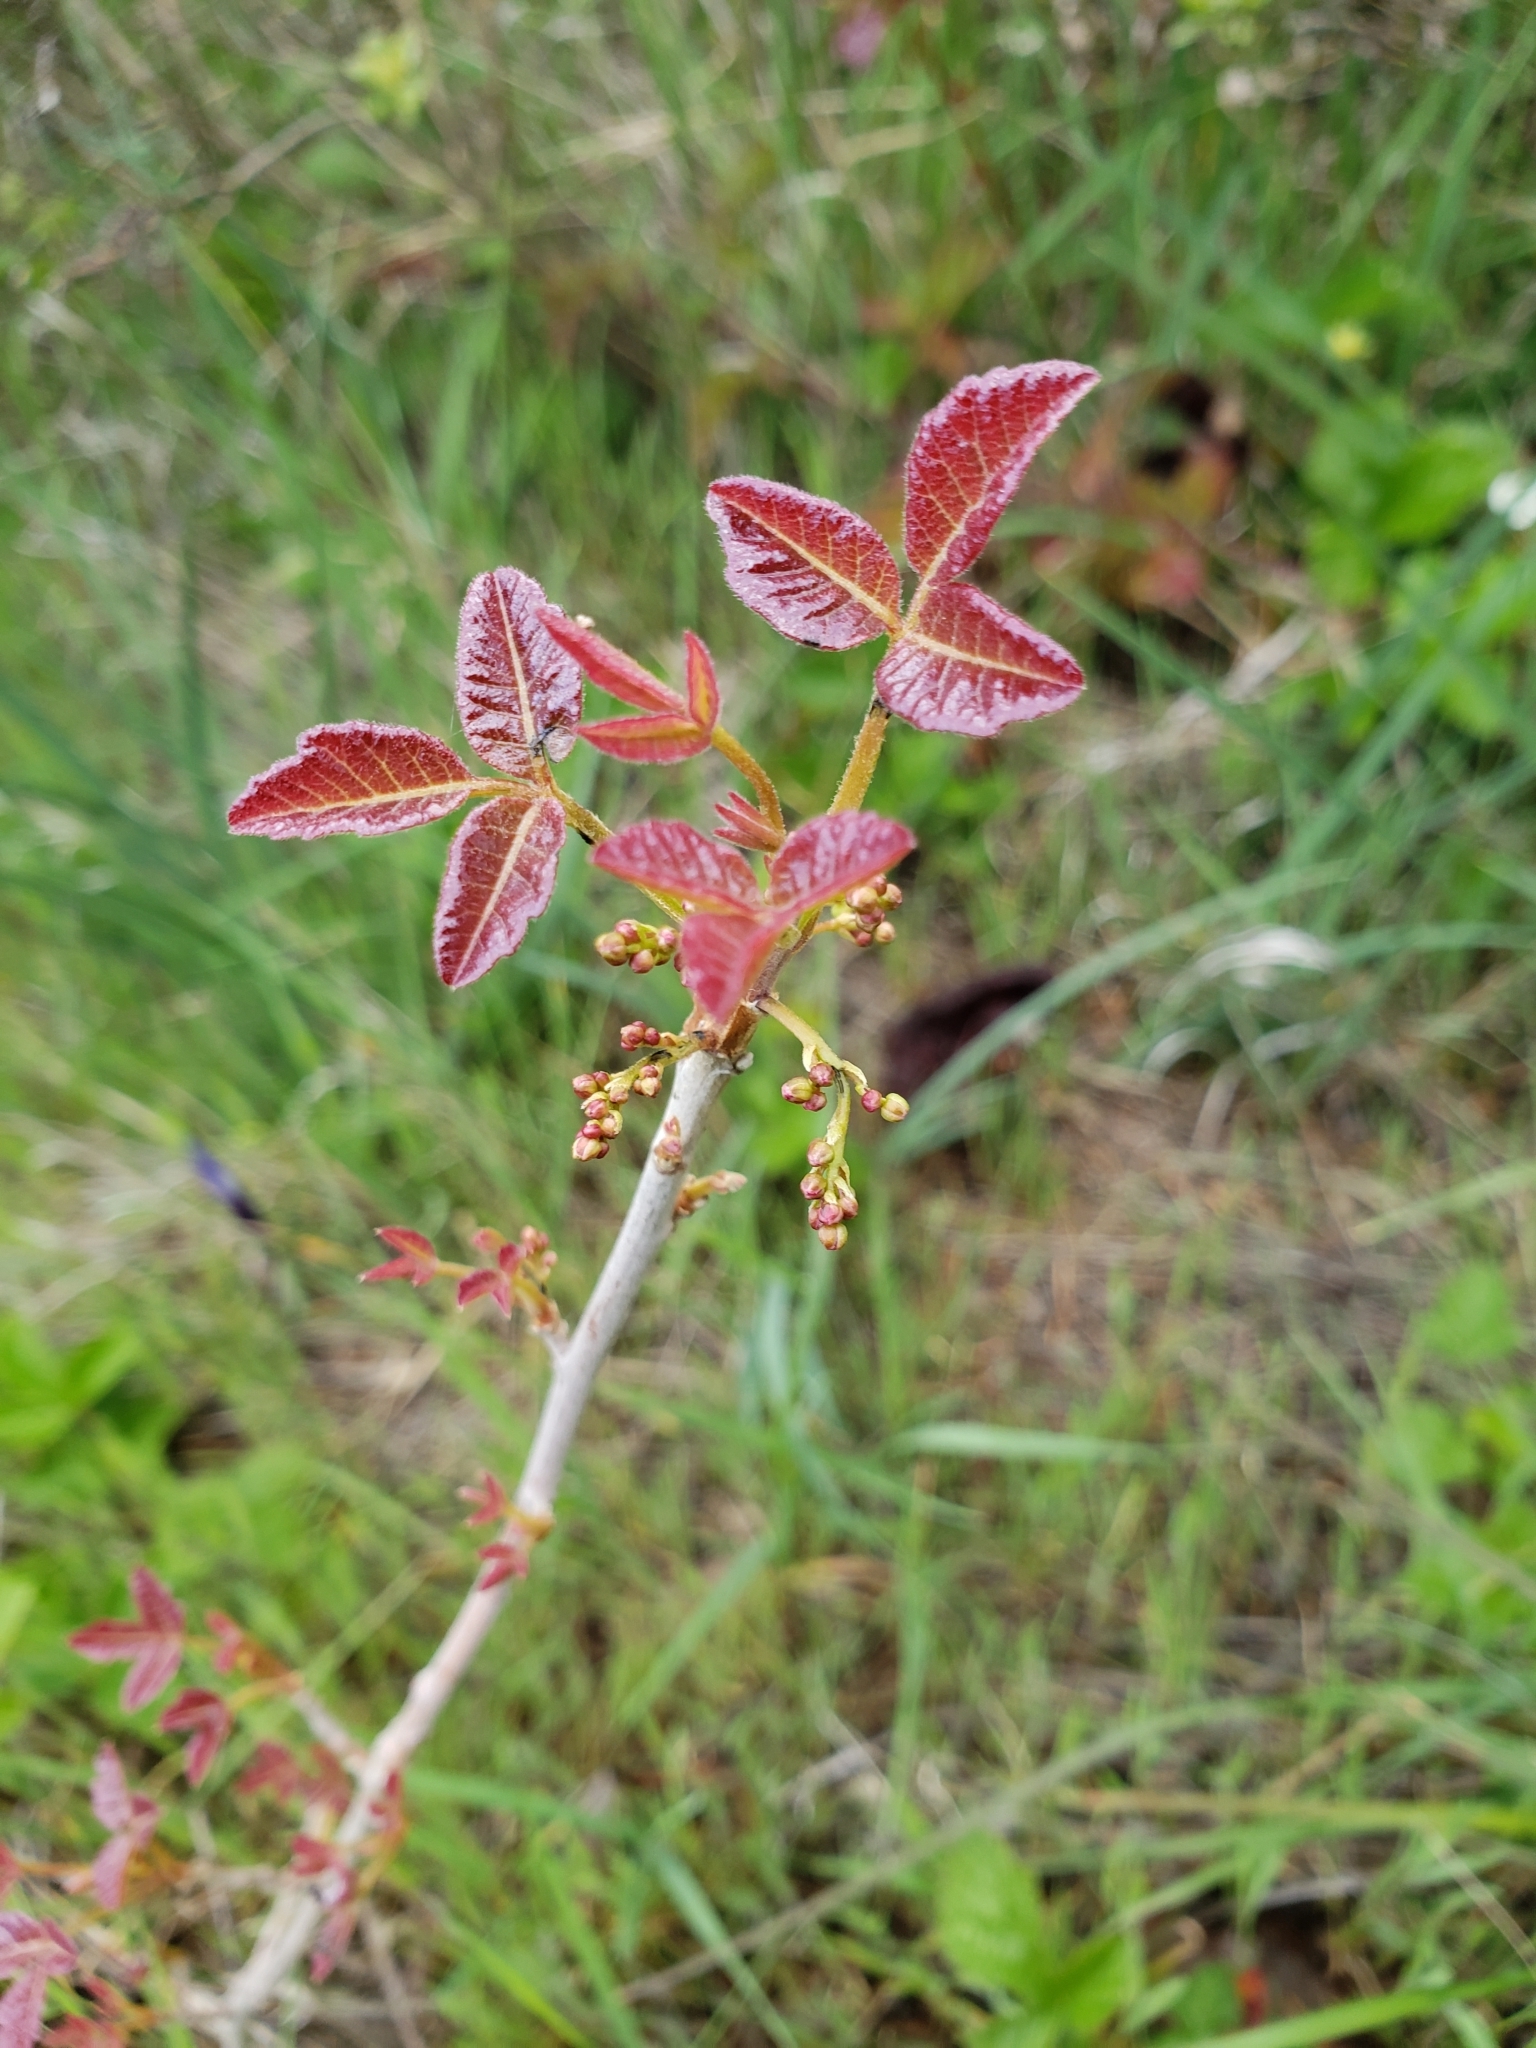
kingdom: Plantae
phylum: Tracheophyta
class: Magnoliopsida
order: Sapindales
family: Anacardiaceae
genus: Toxicodendron
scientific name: Toxicodendron diversilobum
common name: Pacific poison-oak
